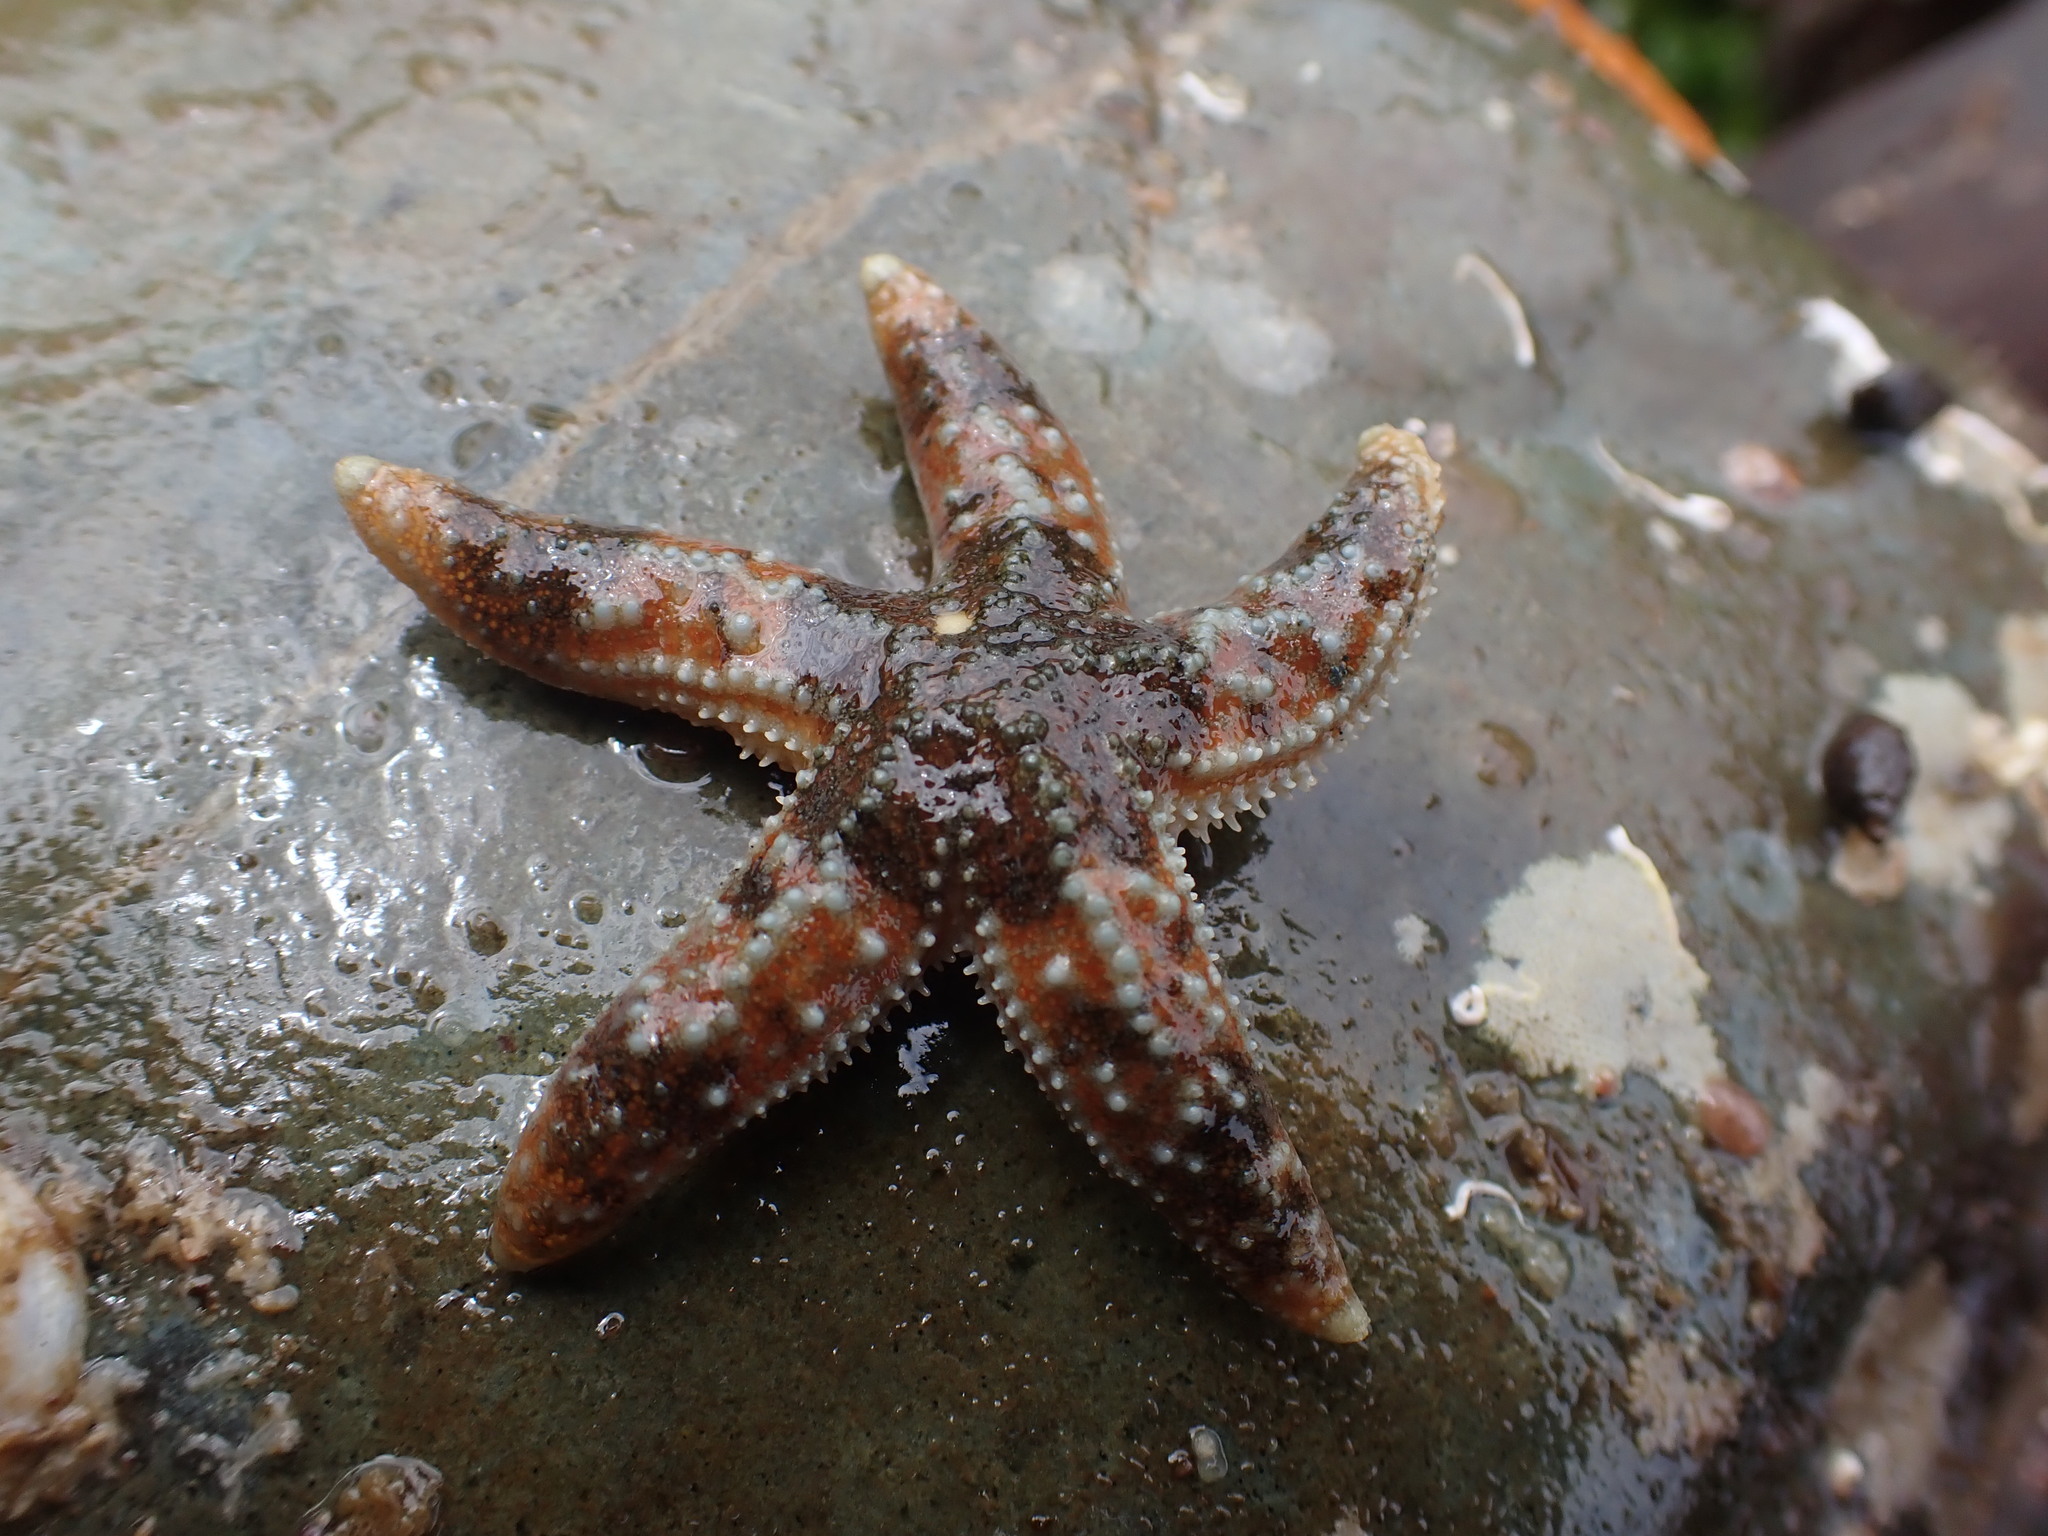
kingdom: Animalia
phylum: Echinodermata
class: Asteroidea
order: Forcipulatida
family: Asteriidae
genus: Evasterias
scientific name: Evasterias troschelii
